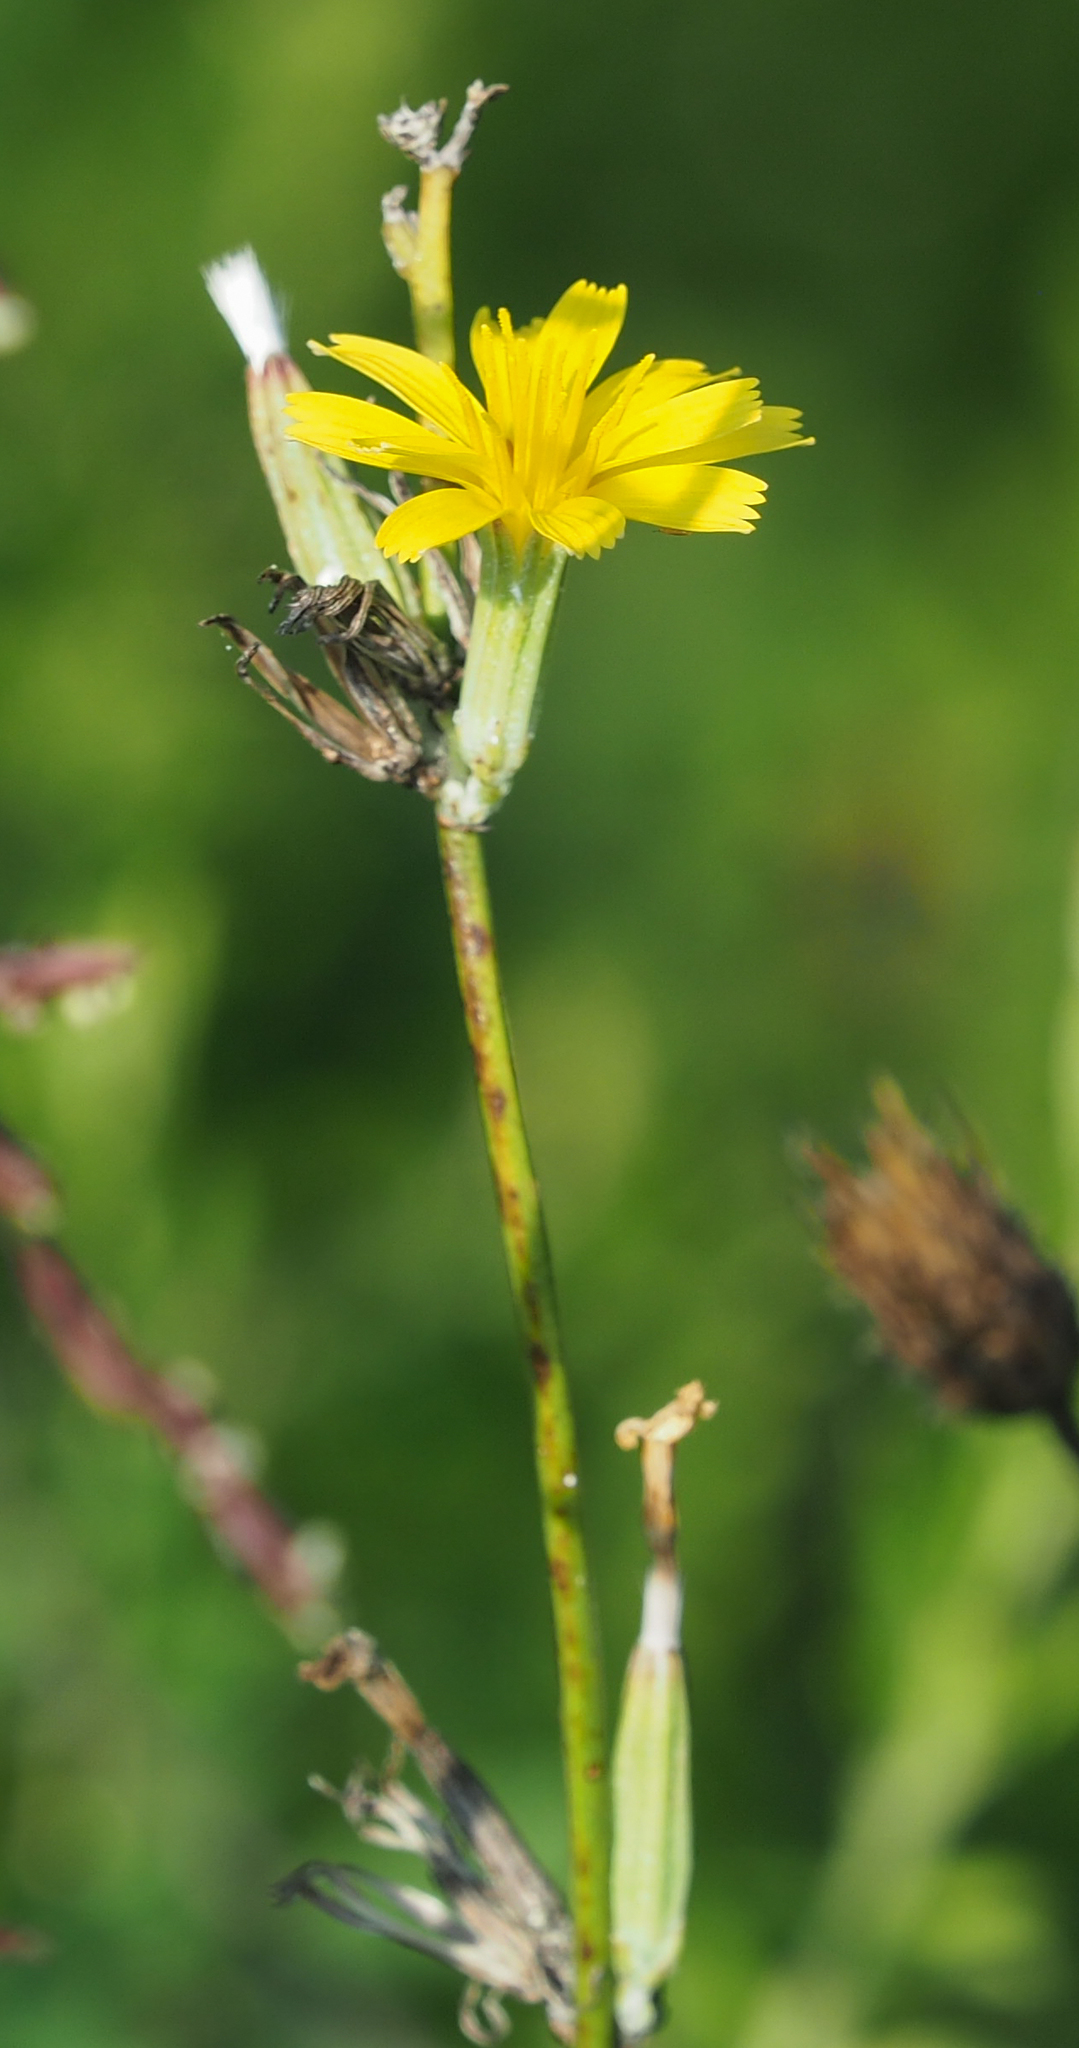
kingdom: Plantae
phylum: Tracheophyta
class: Magnoliopsida
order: Asterales
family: Asteraceae
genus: Chondrilla
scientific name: Chondrilla juncea
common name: Skeleton weed
